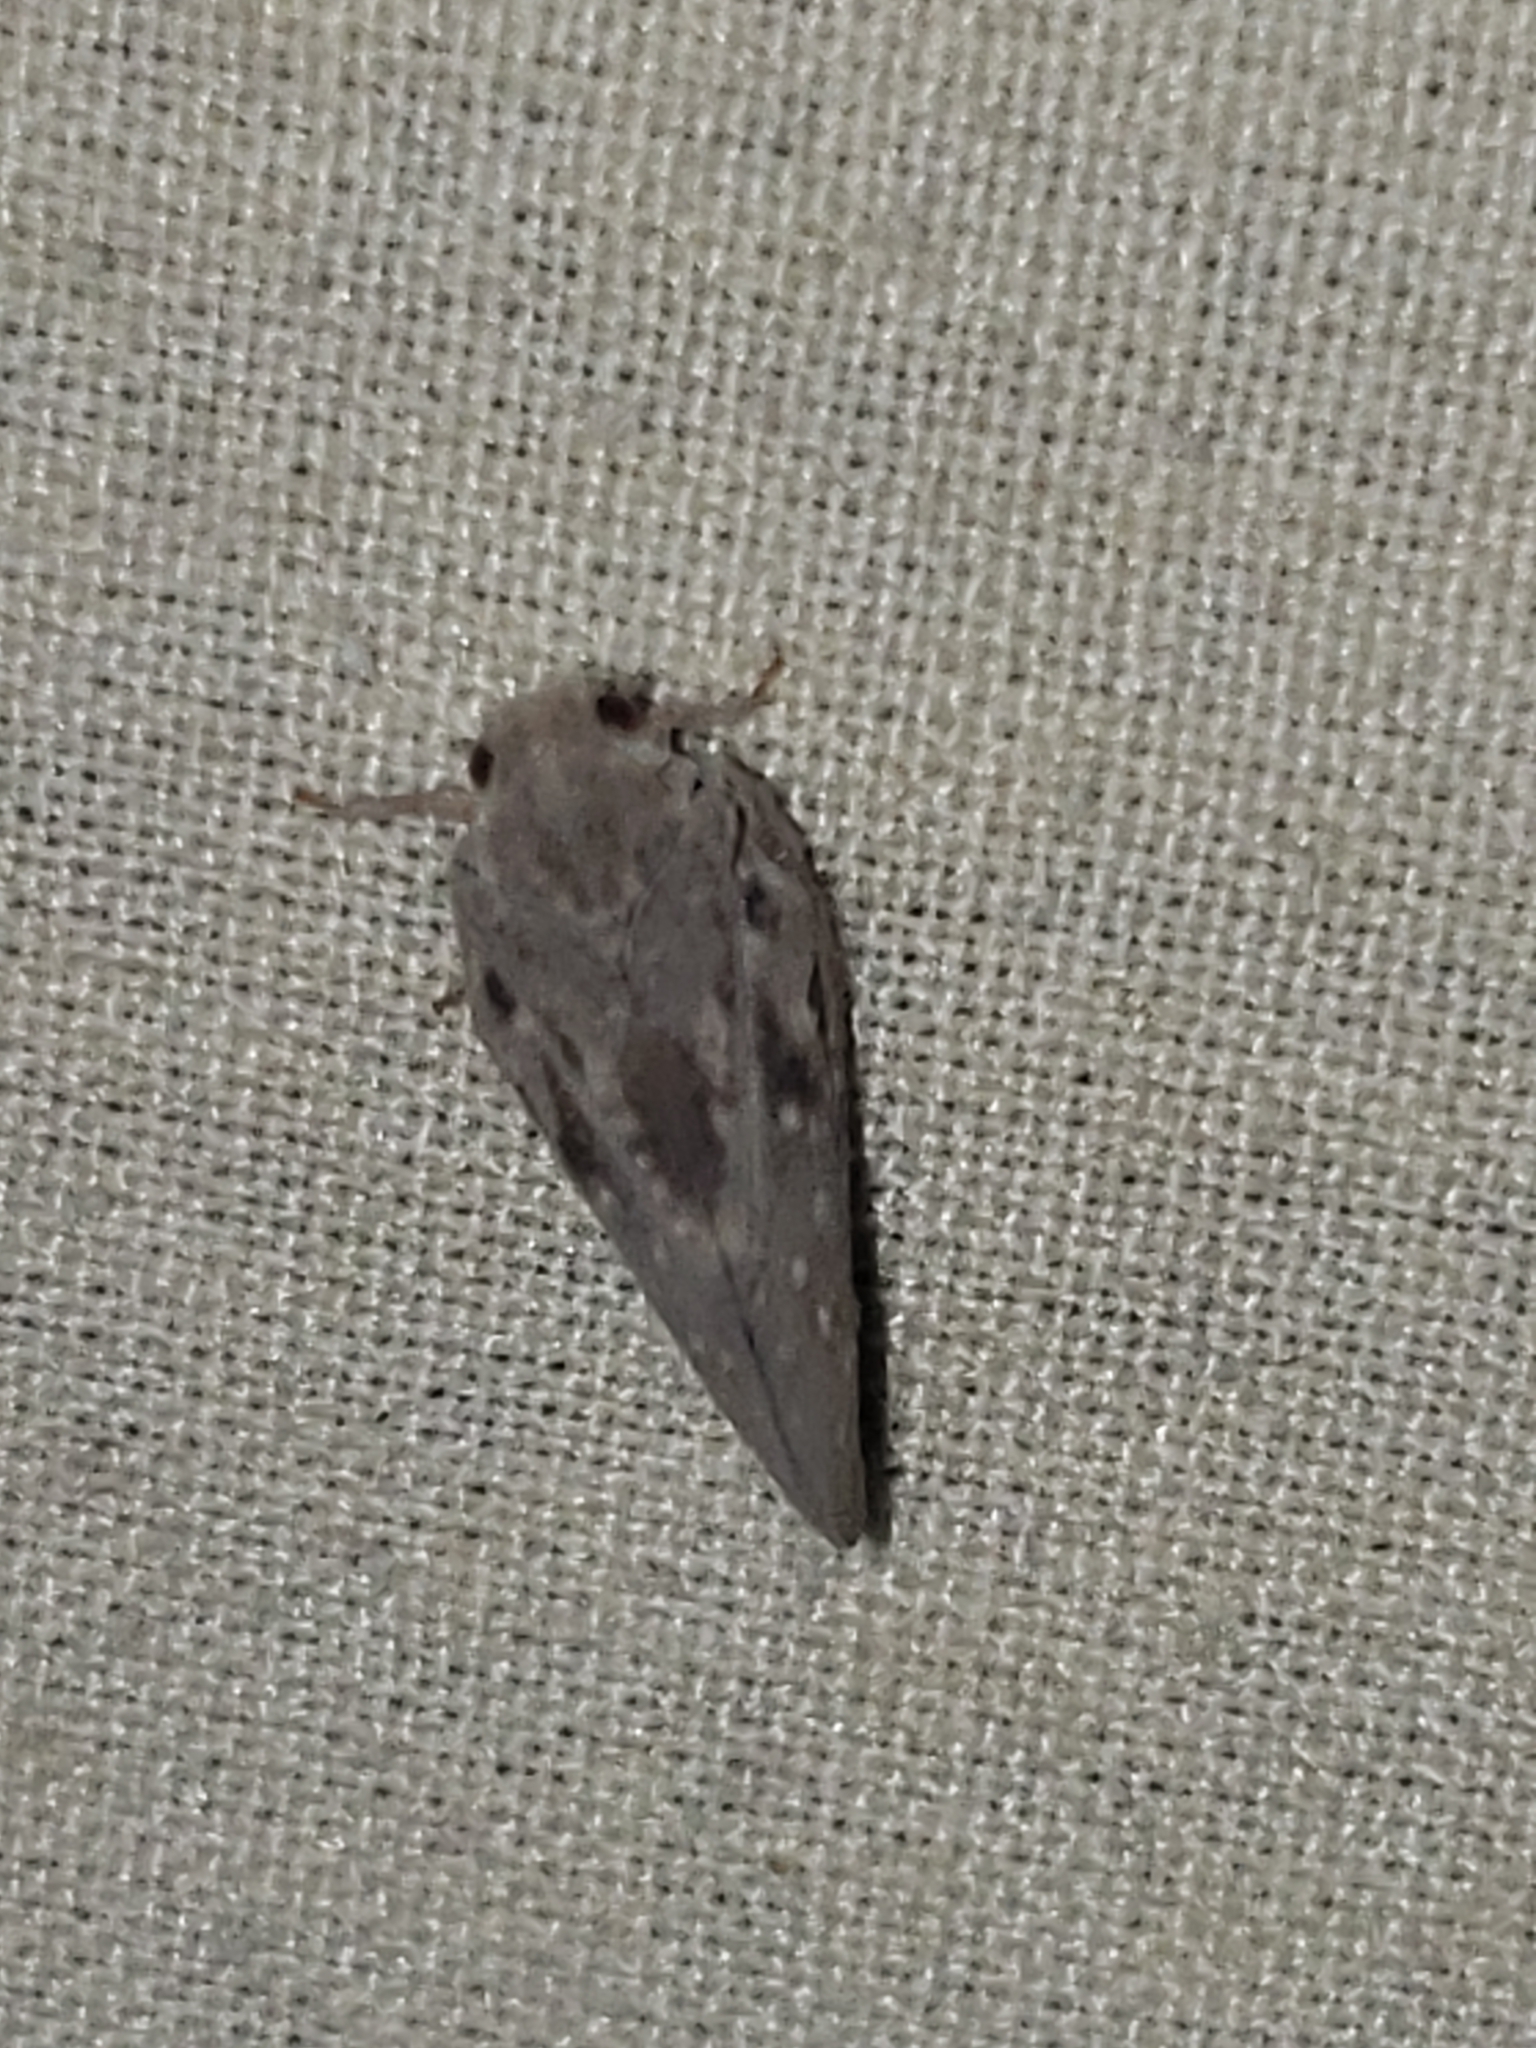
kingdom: Animalia
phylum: Arthropoda
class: Insecta
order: Hemiptera
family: Flatidae
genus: Metcalfa
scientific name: Metcalfa pruinosa
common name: Citrus flatid planthopper
